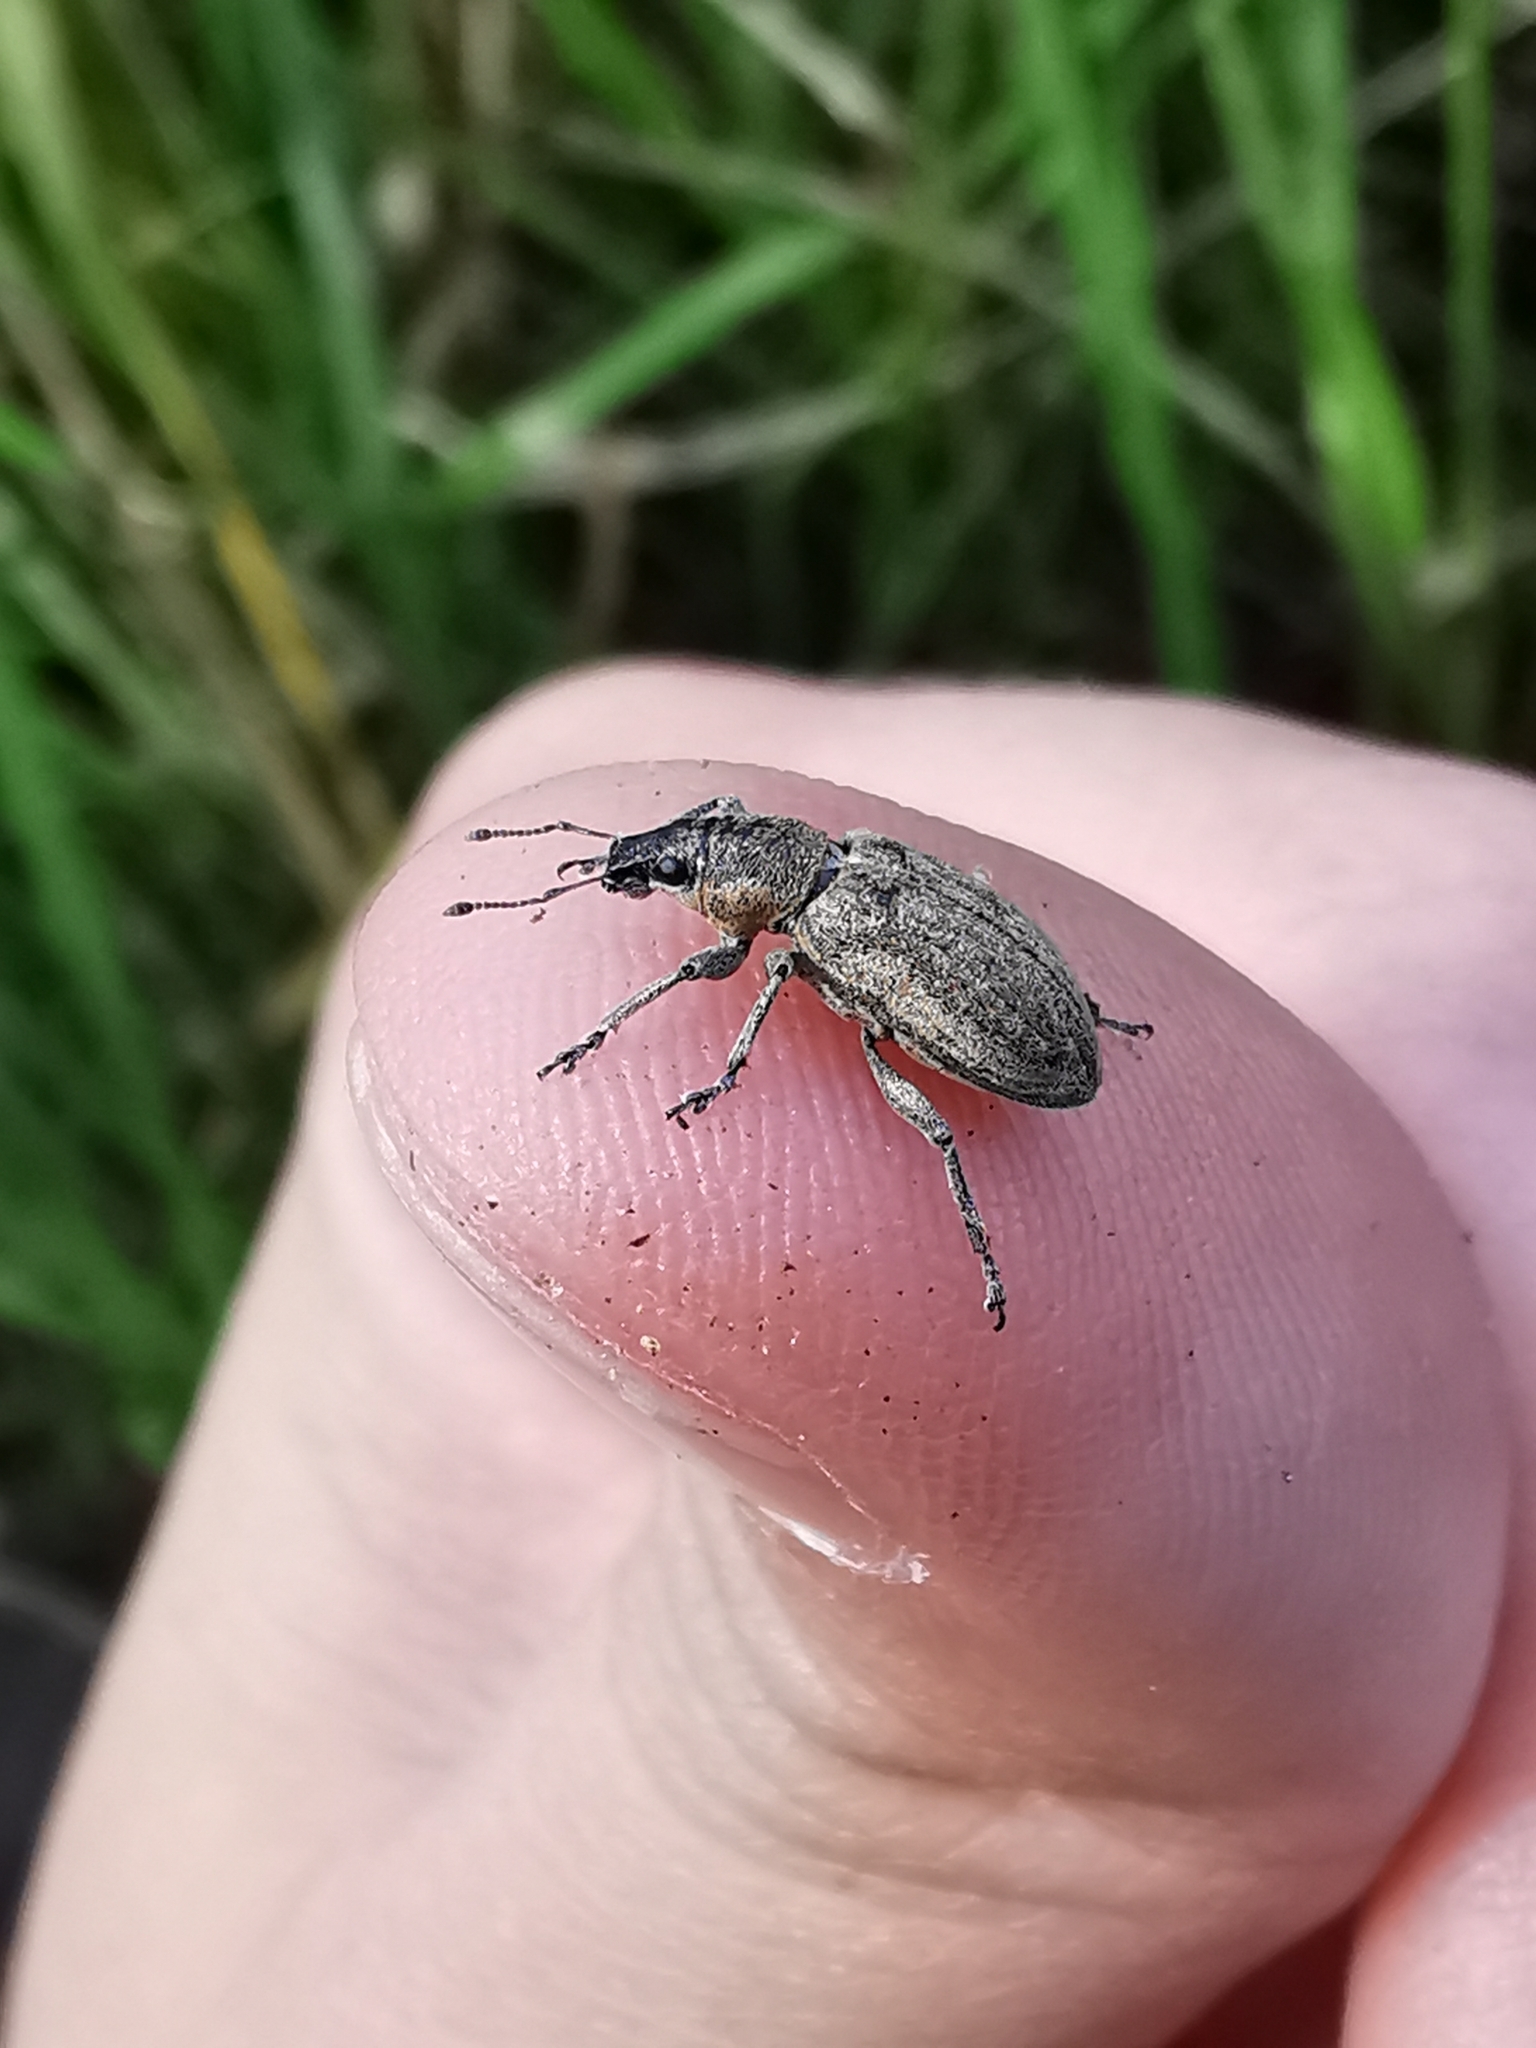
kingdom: Animalia
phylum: Arthropoda
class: Insecta
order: Coleoptera
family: Curculionidae
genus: Tanymecus
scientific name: Tanymecus palliatus
